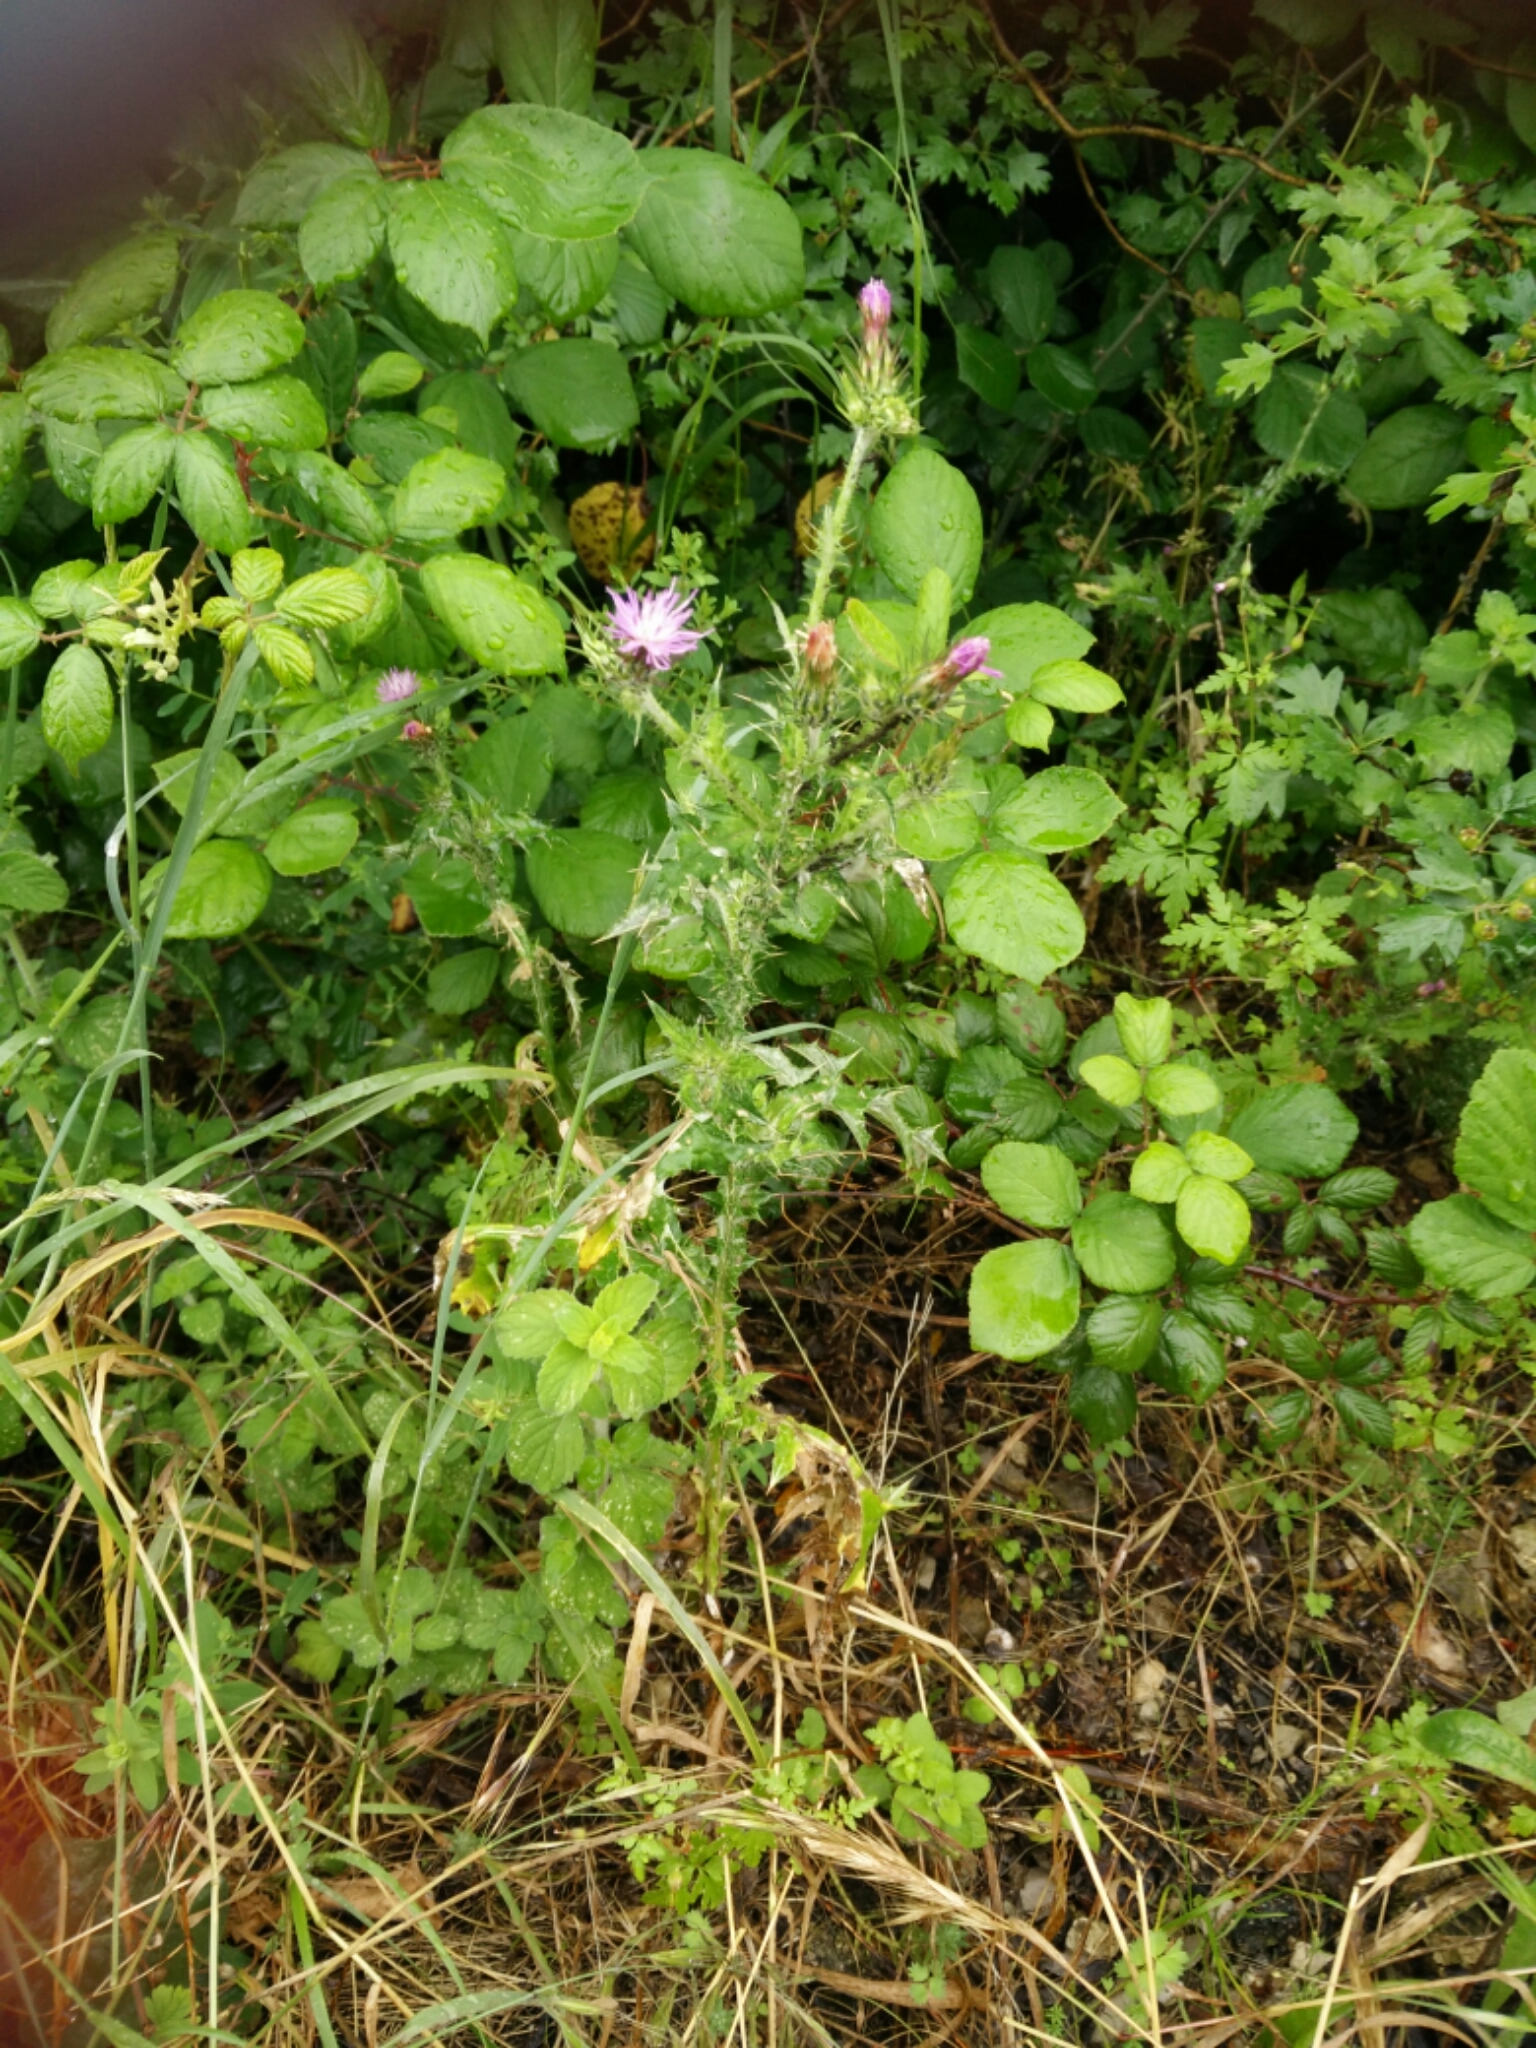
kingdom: Plantae
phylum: Tracheophyta
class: Magnoliopsida
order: Asterales
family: Asteraceae
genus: Carduus
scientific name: Carduus pycnocephalus
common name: Plymouth thistle
